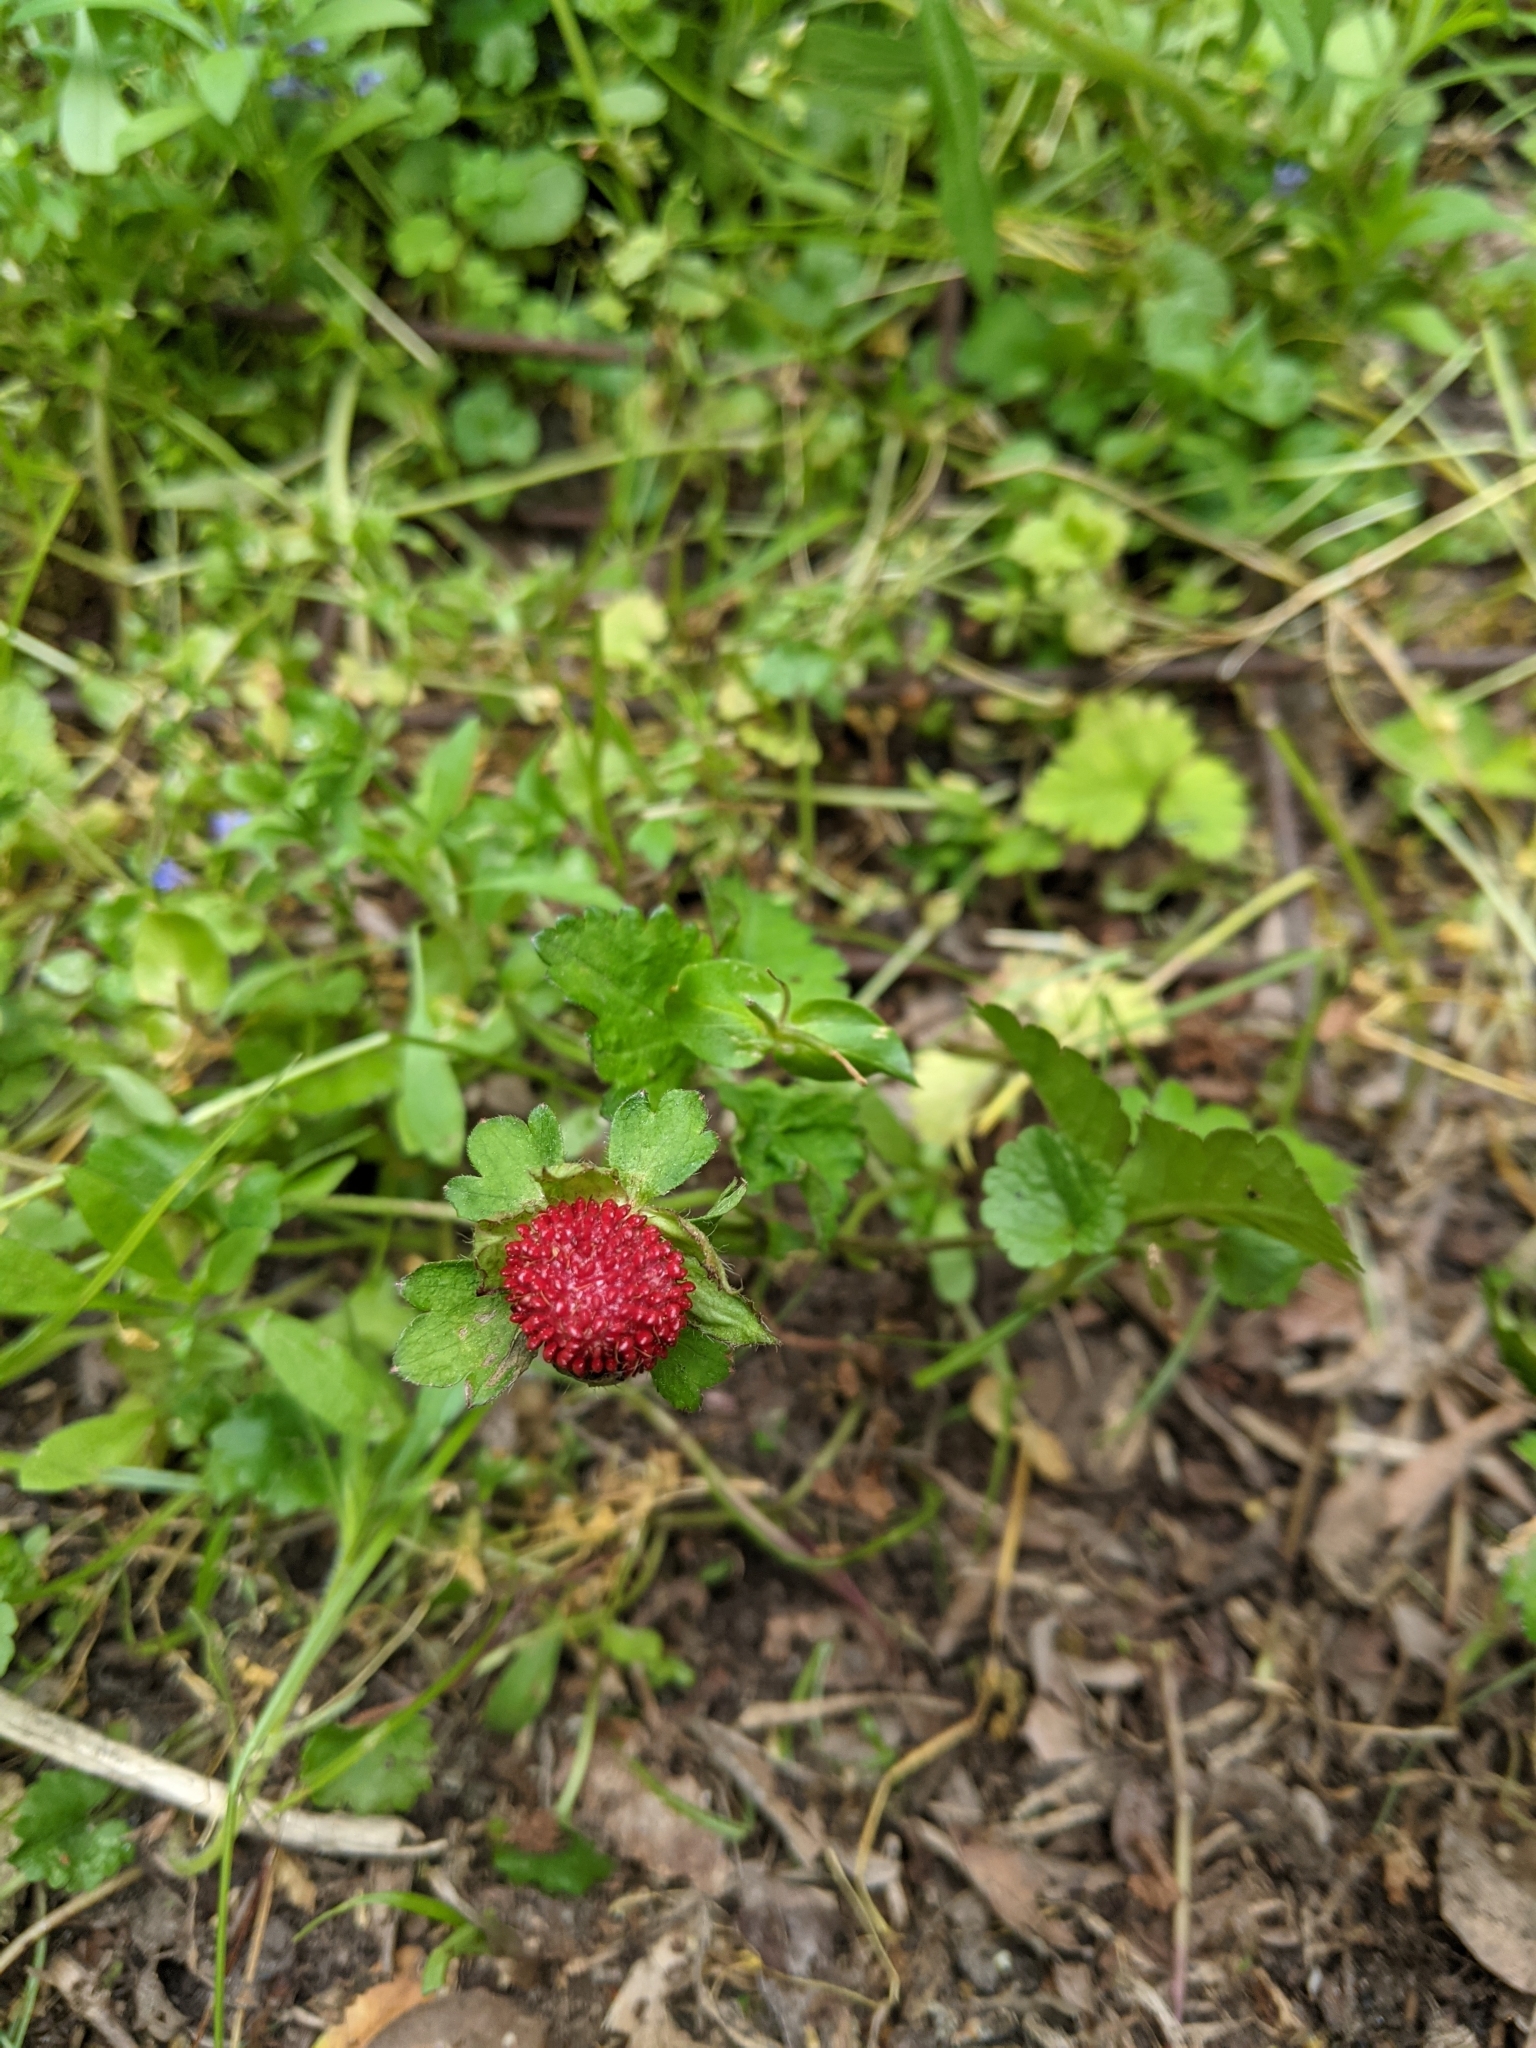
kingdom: Plantae
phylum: Tracheophyta
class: Magnoliopsida
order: Rosales
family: Rosaceae
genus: Potentilla
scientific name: Potentilla indica
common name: Yellow-flowered strawberry
